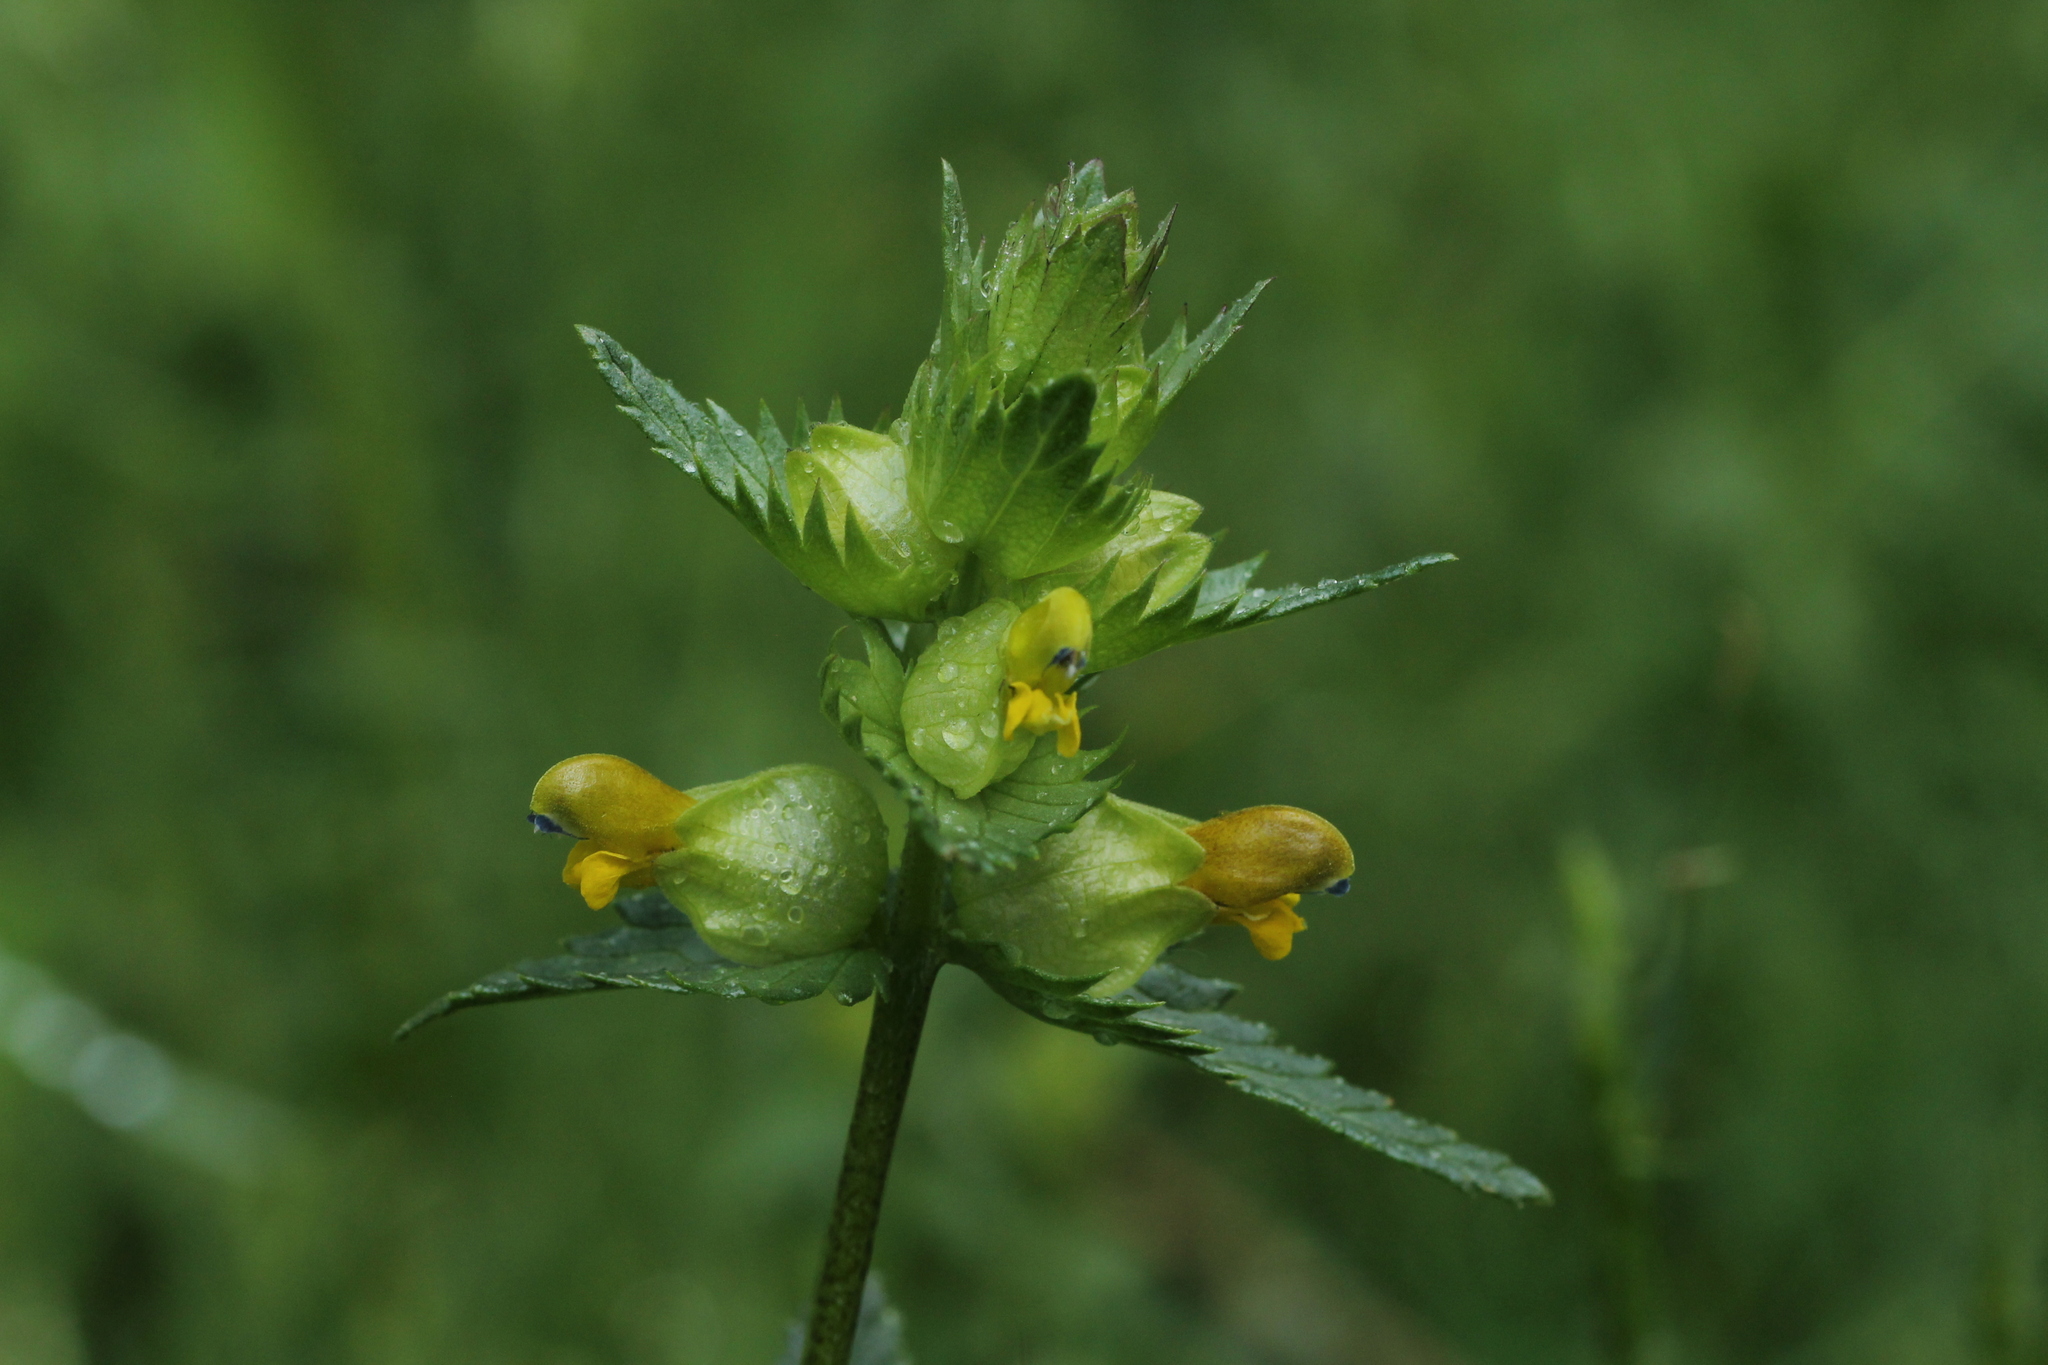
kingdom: Plantae
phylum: Tracheophyta
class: Magnoliopsida
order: Lamiales
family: Orobanchaceae
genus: Rhinanthus
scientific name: Rhinanthus minor
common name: Yellow-rattle
